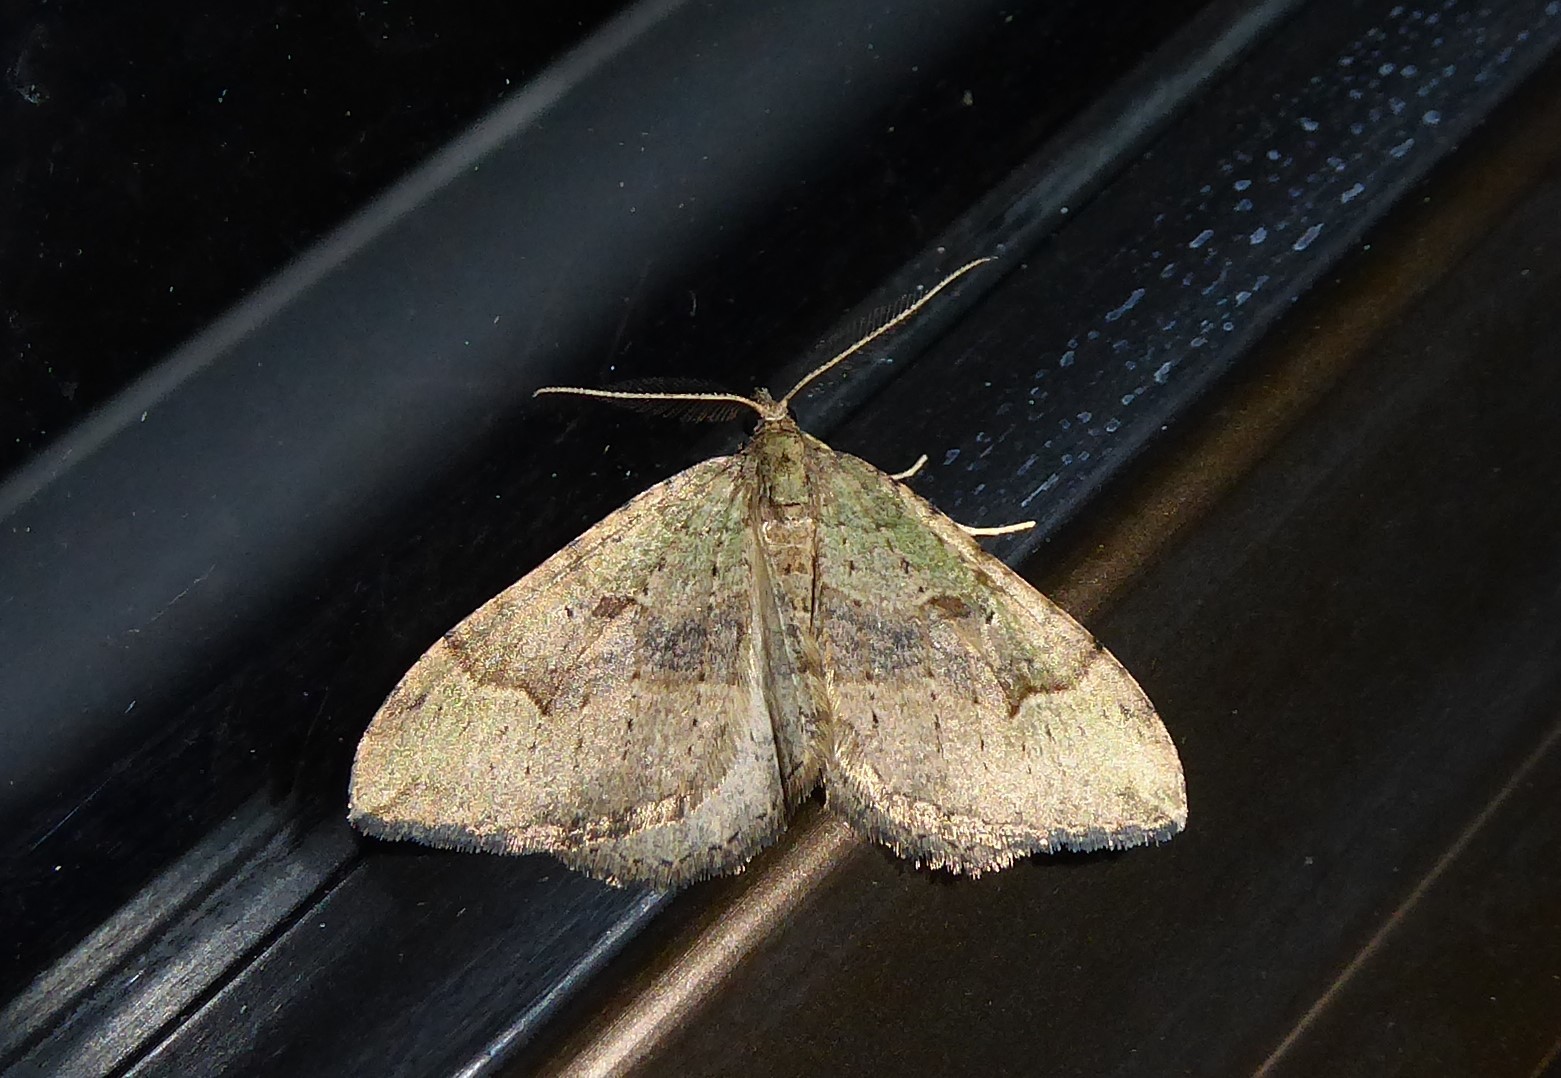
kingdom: Animalia
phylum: Arthropoda
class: Insecta
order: Lepidoptera
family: Geometridae
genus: Epyaxa
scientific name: Epyaxa rosearia
